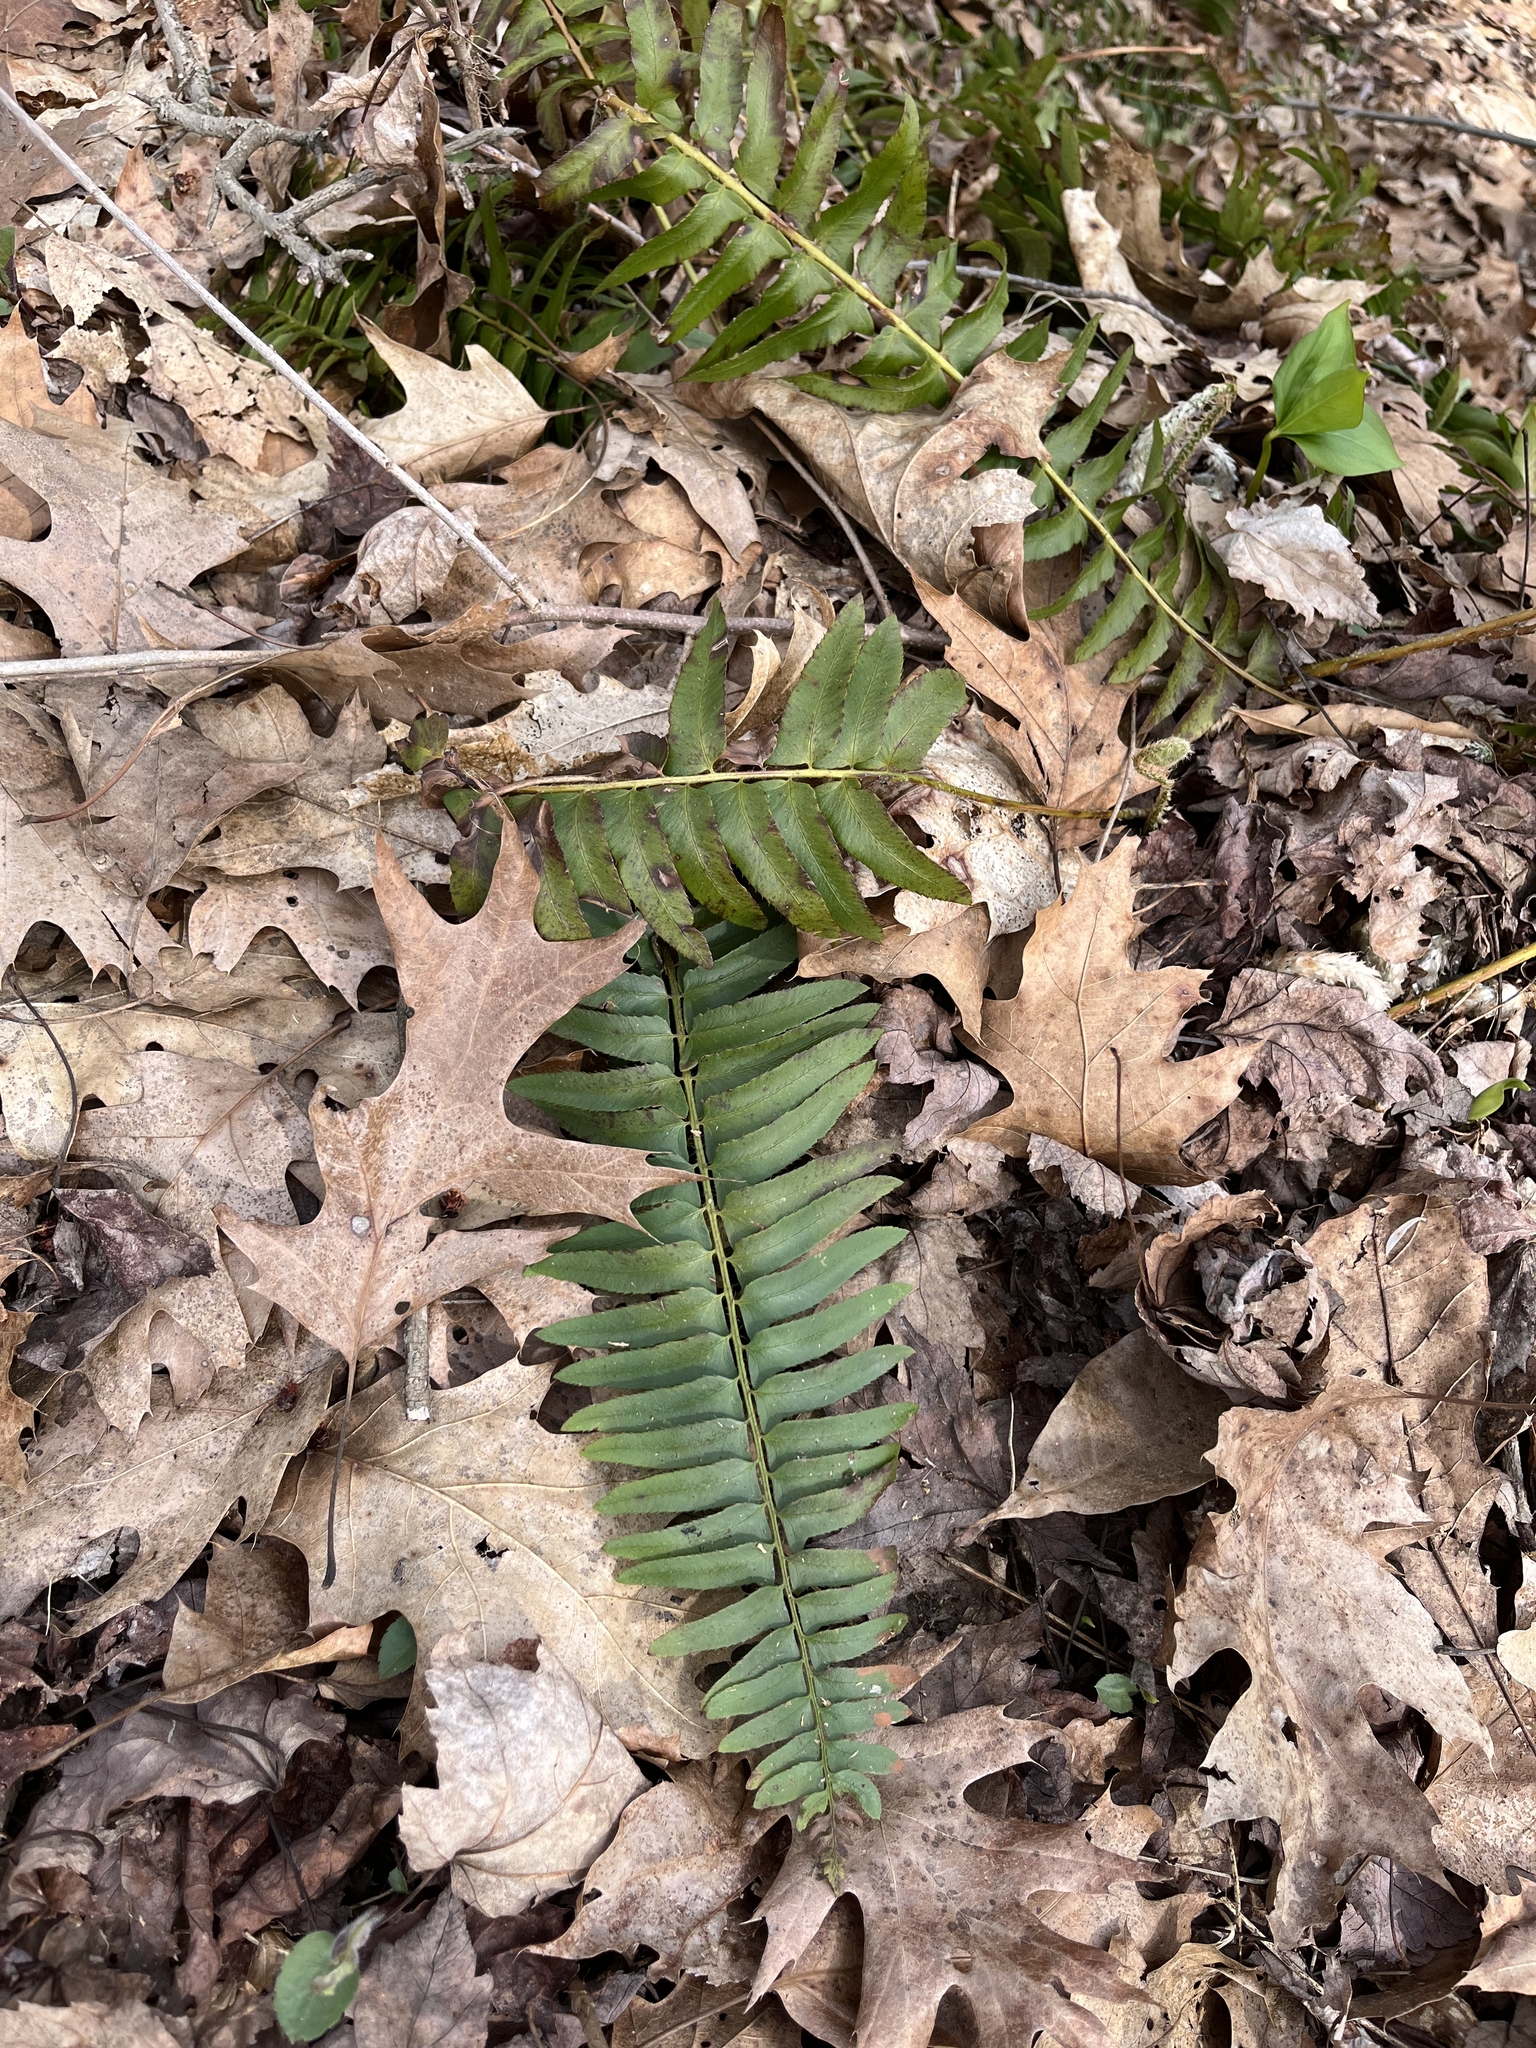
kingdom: Plantae
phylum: Tracheophyta
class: Polypodiopsida
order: Polypodiales
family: Dryopteridaceae
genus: Polystichum
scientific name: Polystichum acrostichoides
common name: Christmas fern
